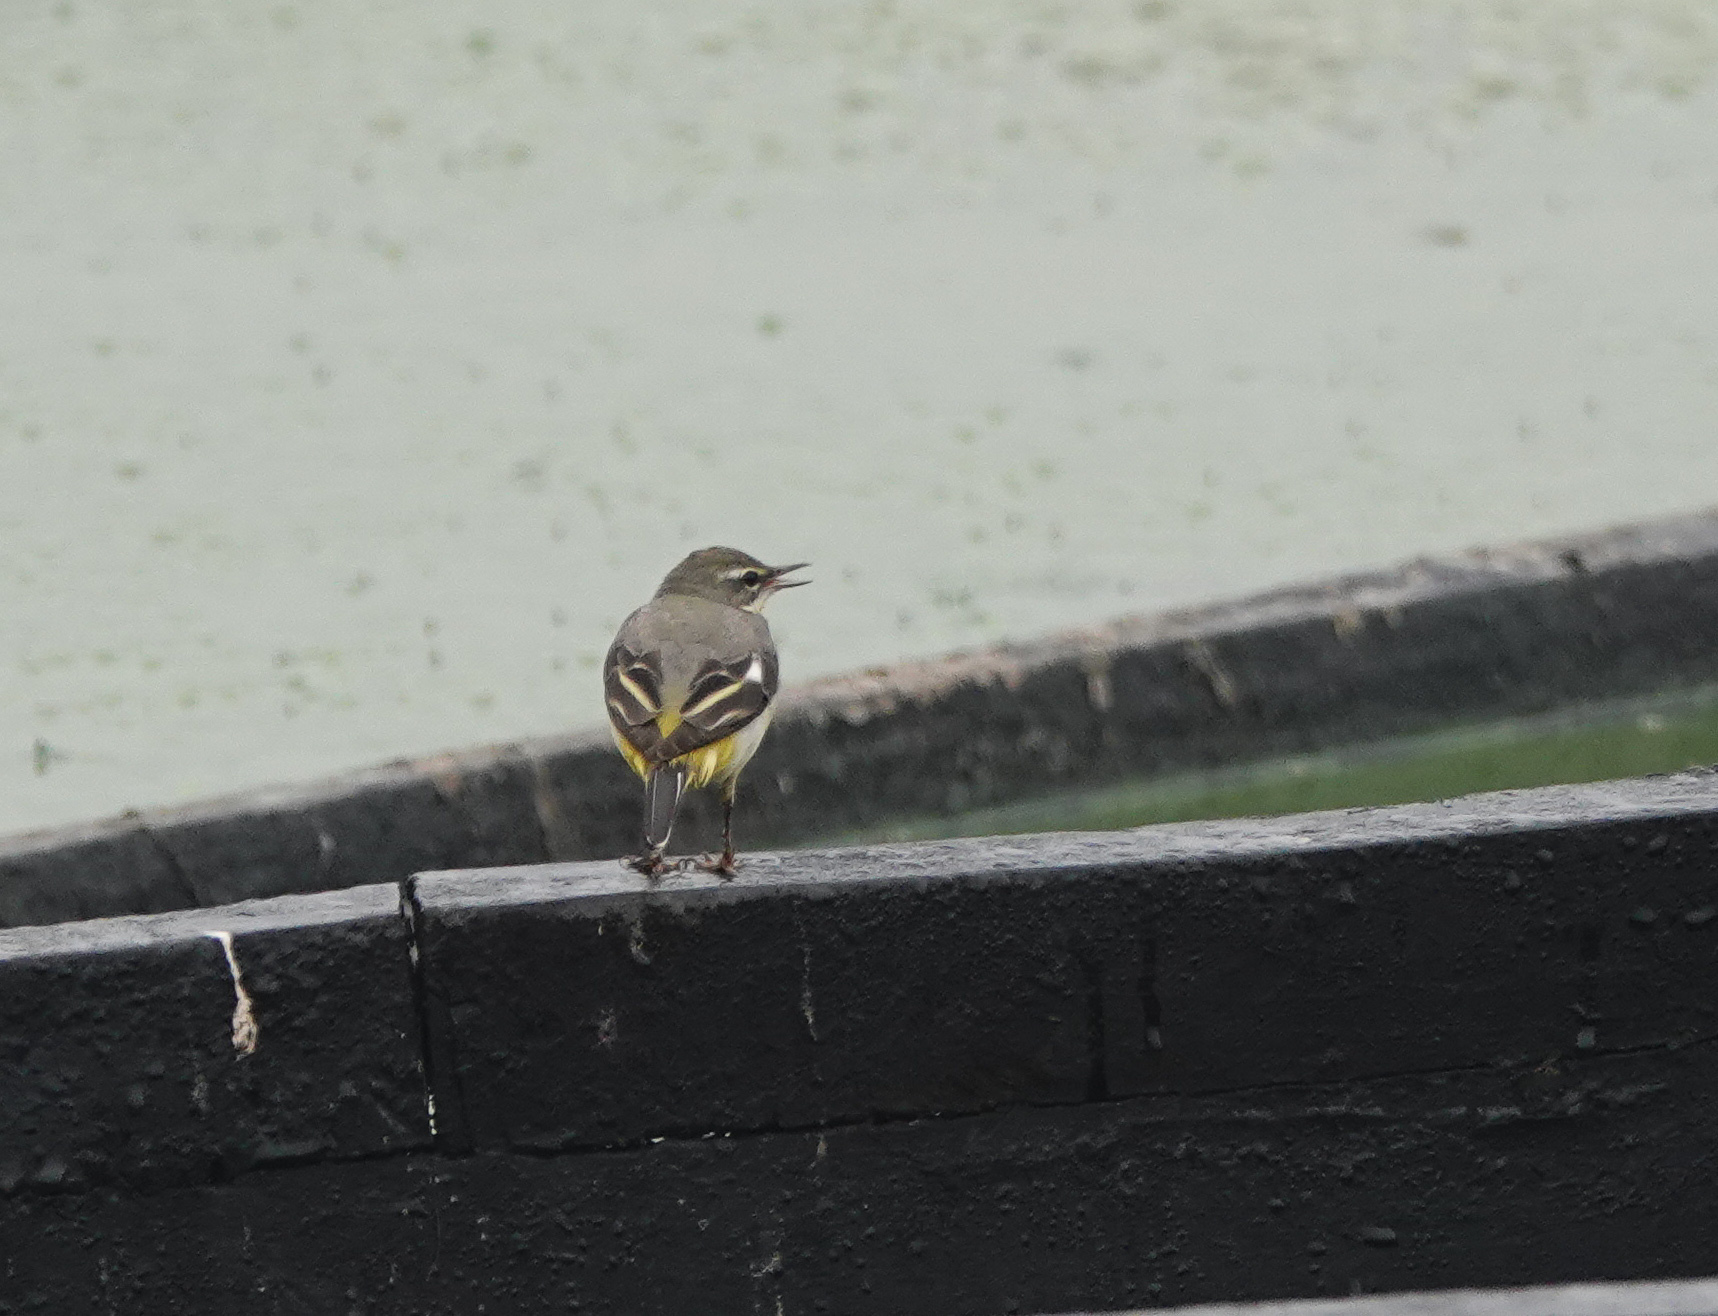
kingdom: Animalia
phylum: Chordata
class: Aves
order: Passeriformes
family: Motacillidae
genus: Motacilla
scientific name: Motacilla cinerea
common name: Grey wagtail
